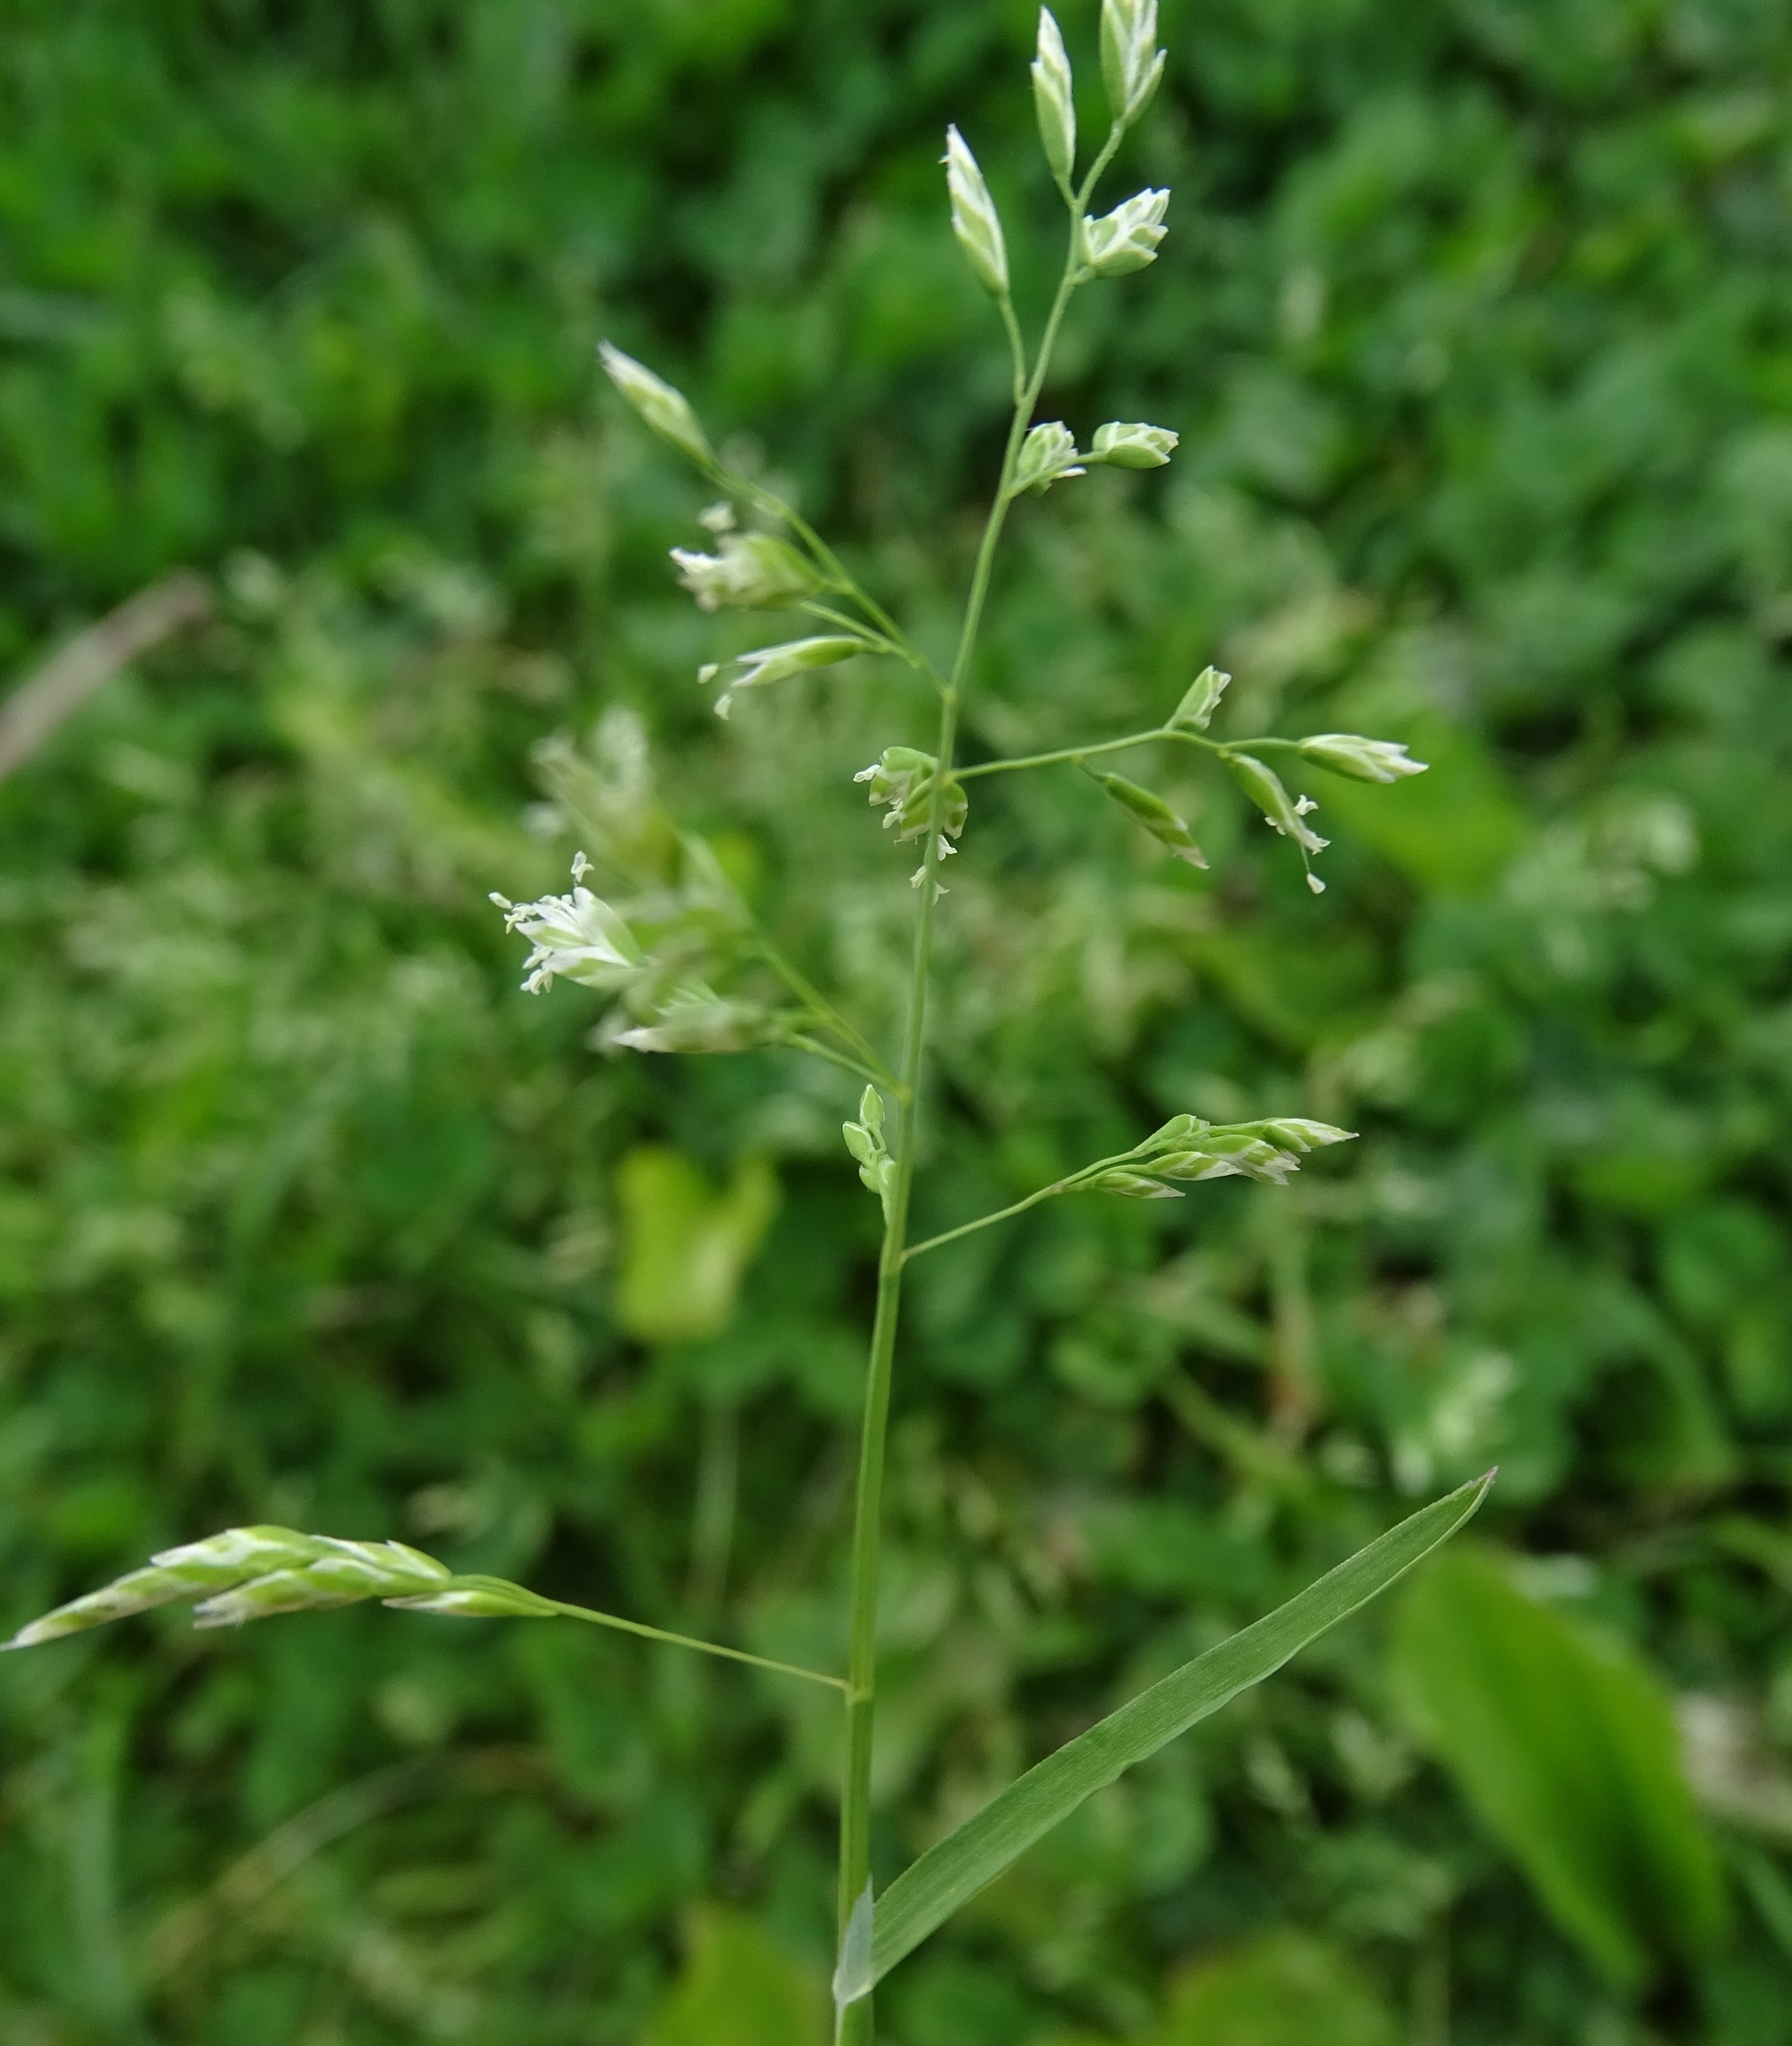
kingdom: Plantae
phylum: Tracheophyta
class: Liliopsida
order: Poales
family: Poaceae
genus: Poa
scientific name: Poa pratensis
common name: Kentucky bluegrass
